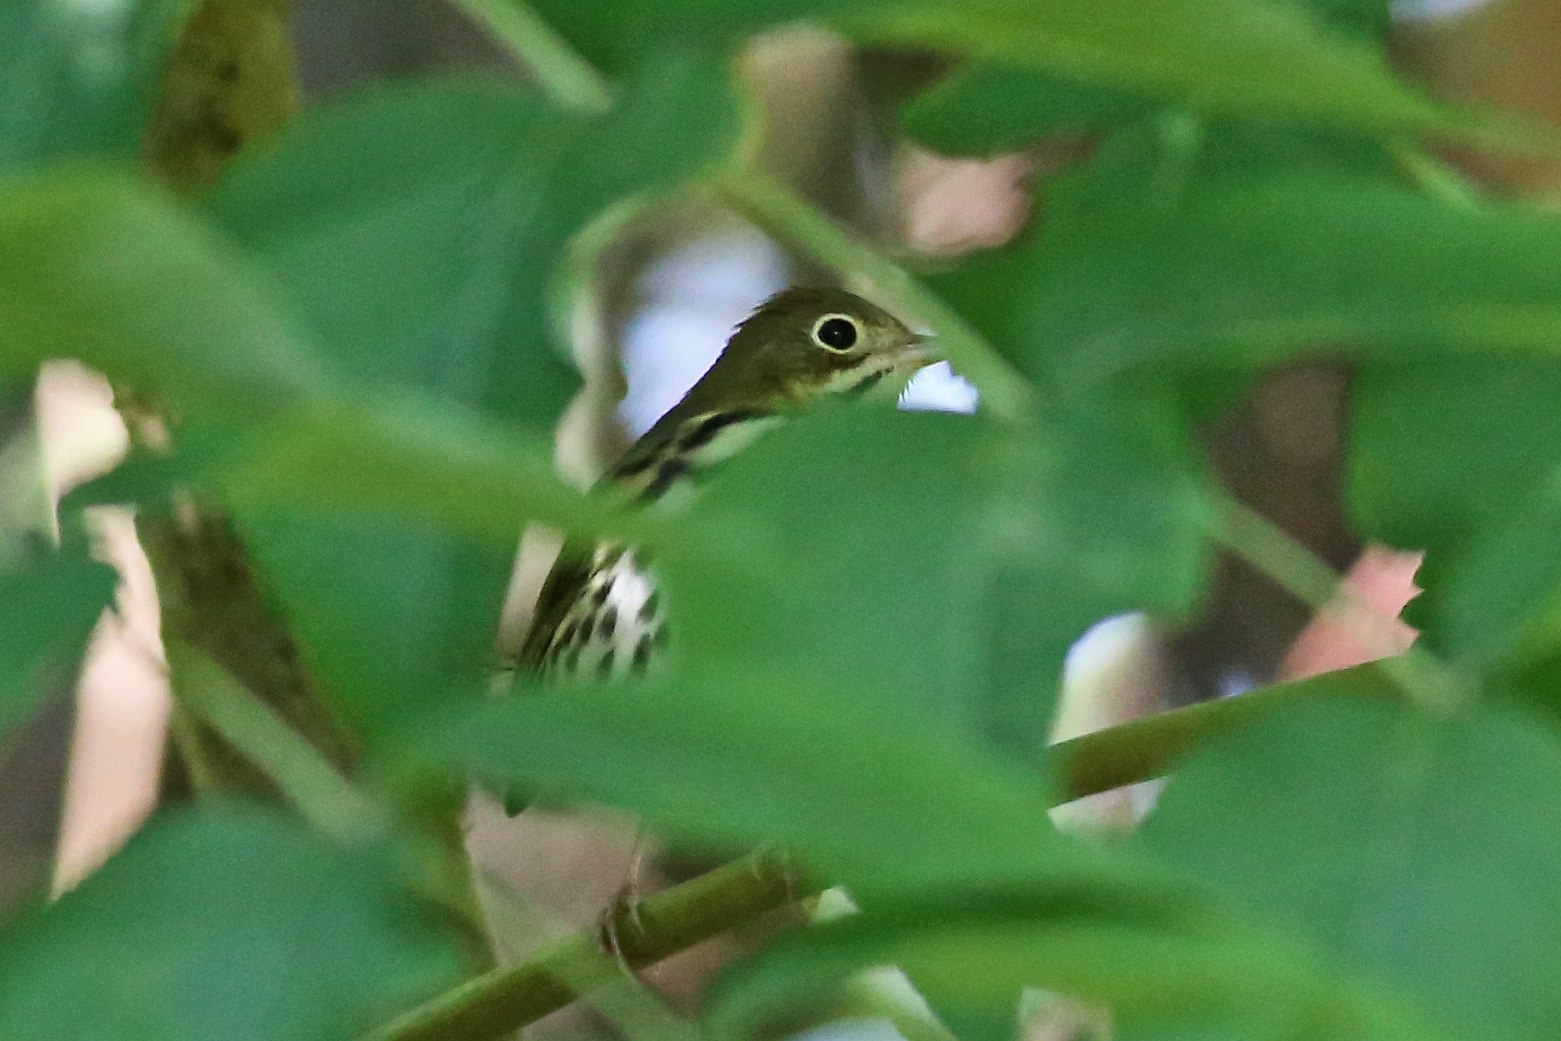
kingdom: Animalia
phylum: Chordata
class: Aves
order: Passeriformes
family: Parulidae
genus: Seiurus
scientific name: Seiurus aurocapilla
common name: Ovenbird
